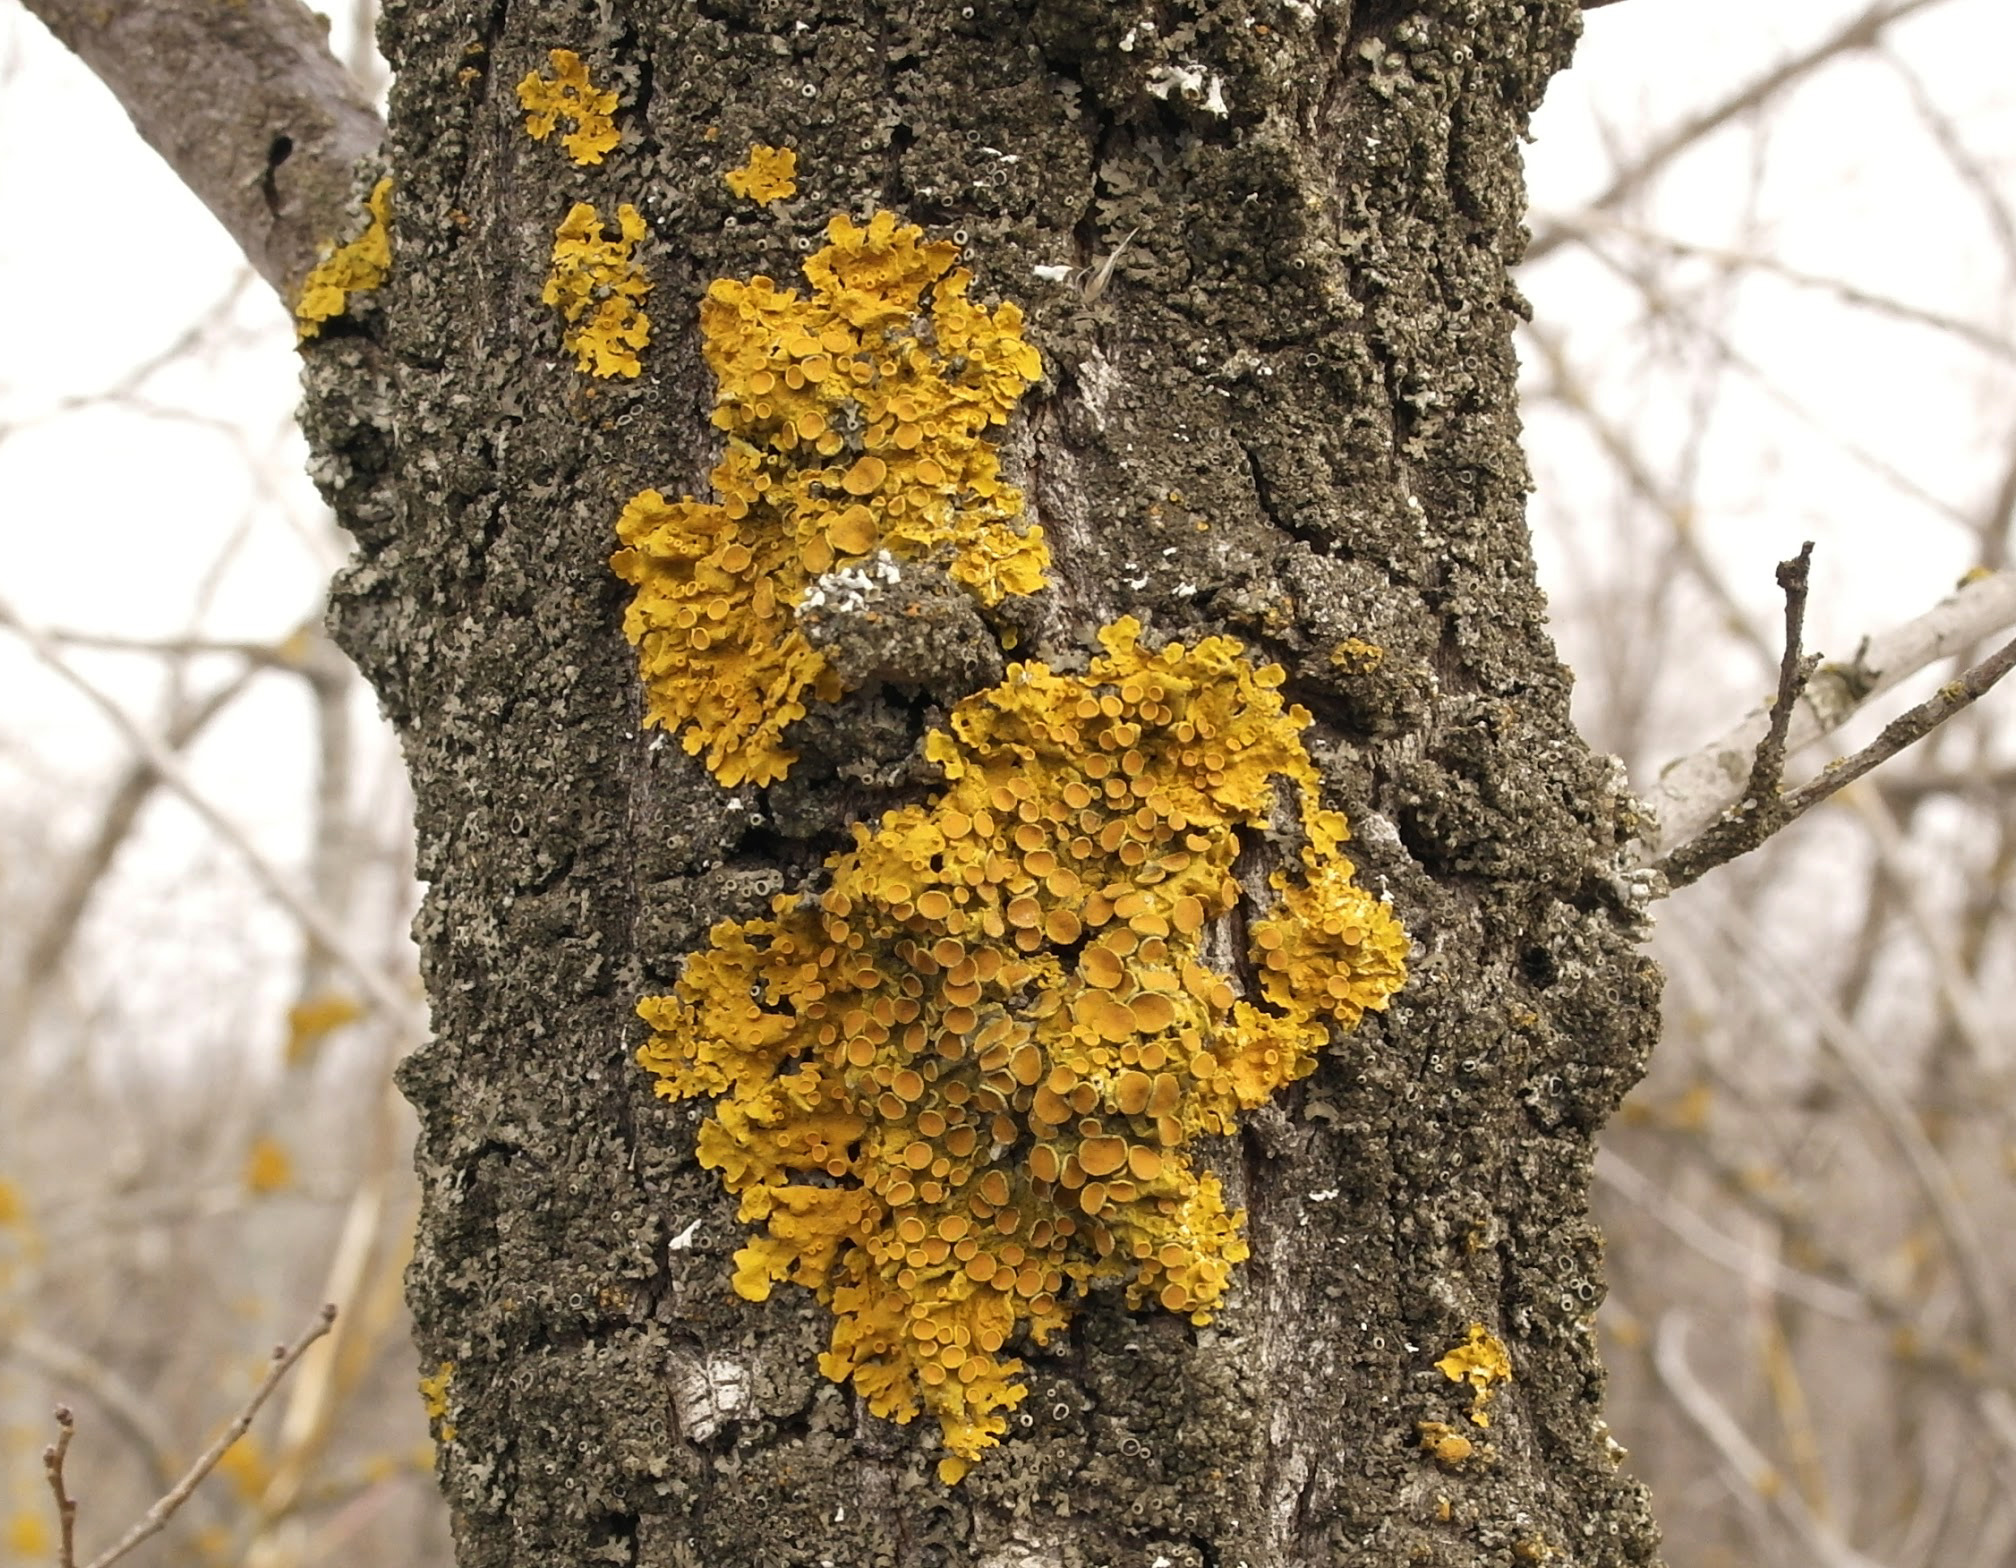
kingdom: Fungi
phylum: Ascomycota
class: Lecanoromycetes
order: Teloschistales
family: Teloschistaceae
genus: Xanthoria
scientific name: Xanthoria parietina
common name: Common orange lichen
